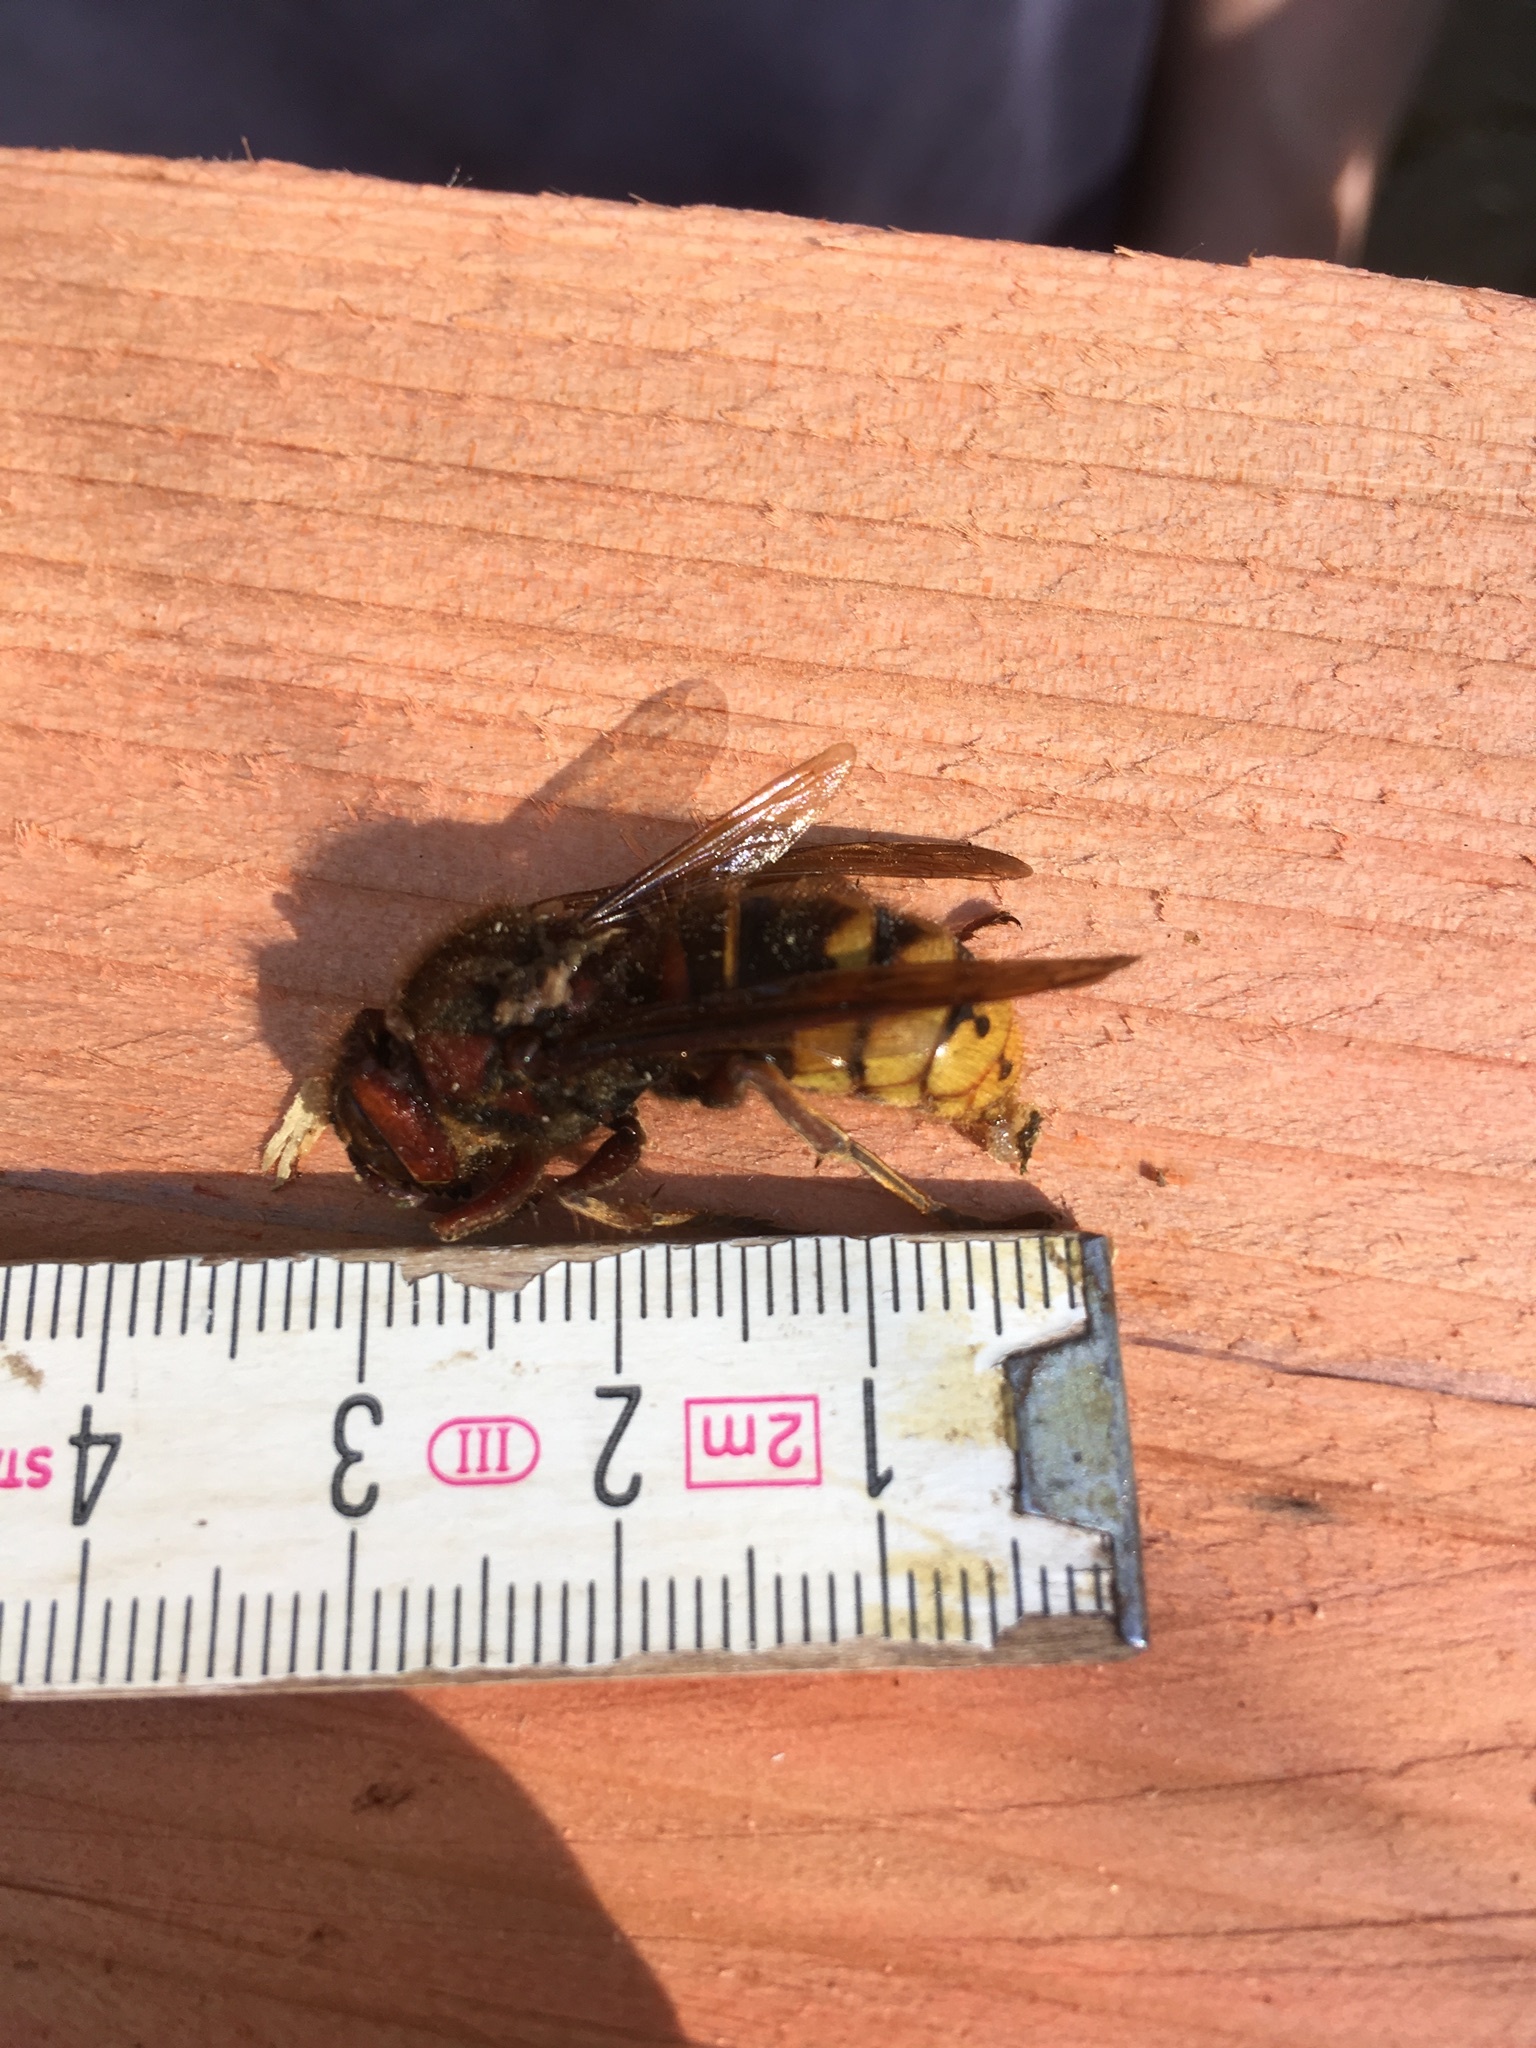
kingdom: Animalia
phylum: Arthropoda
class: Insecta
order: Hymenoptera
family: Vespidae
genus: Vespa
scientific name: Vespa crabro
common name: Hornet
